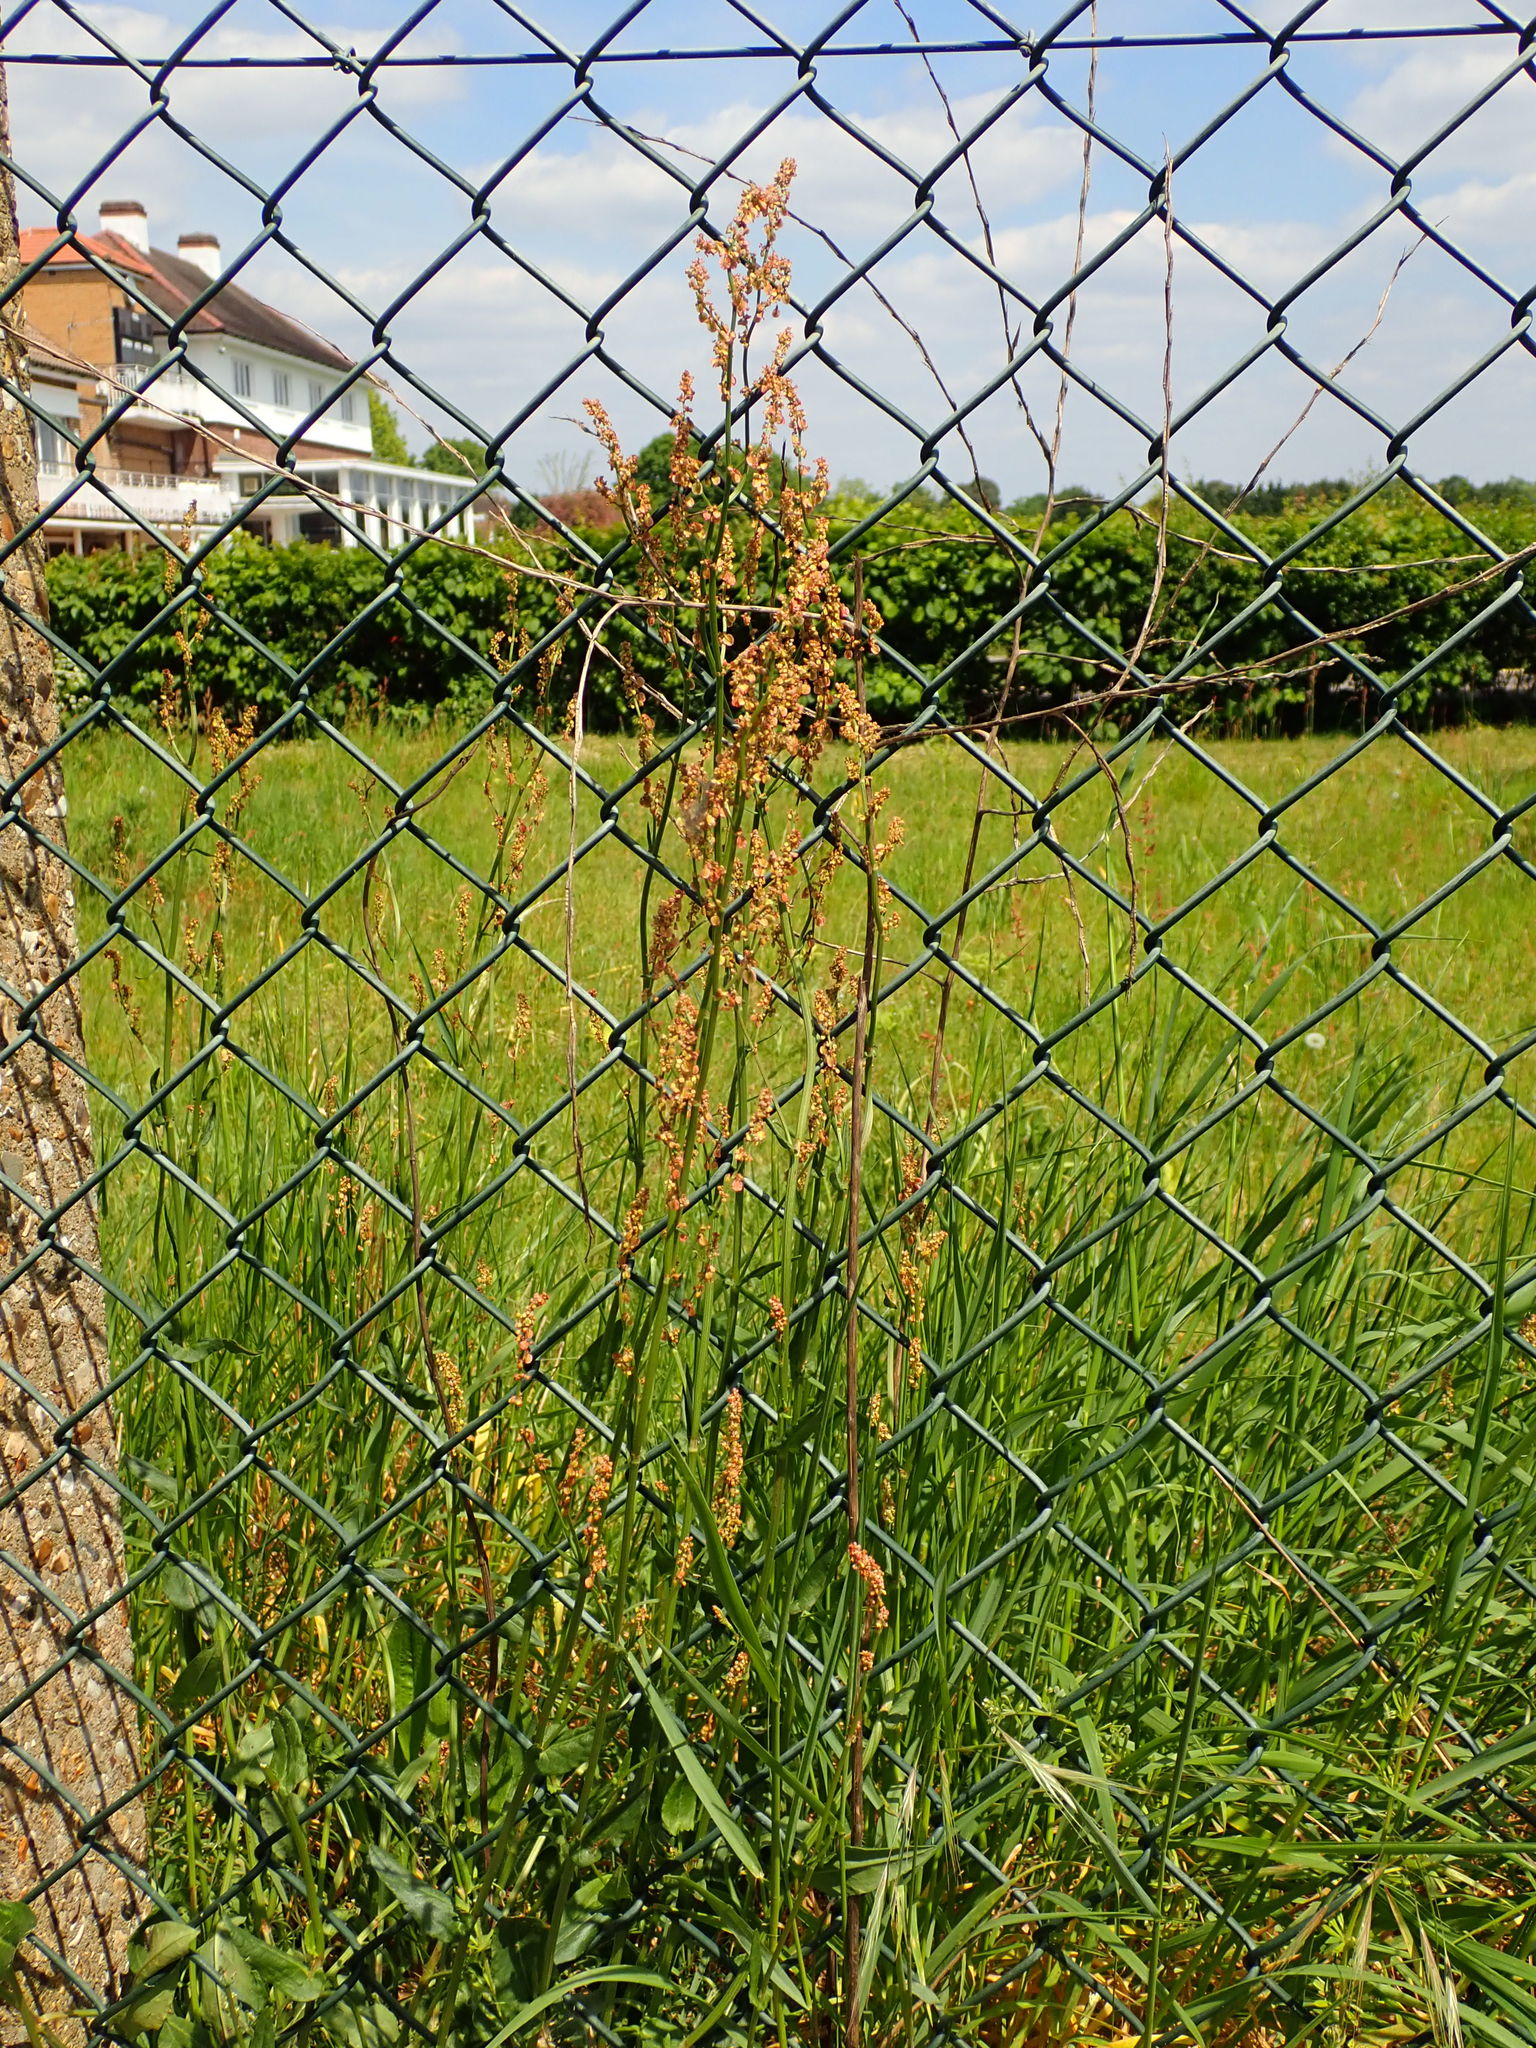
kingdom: Plantae
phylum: Tracheophyta
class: Magnoliopsida
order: Caryophyllales
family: Polygonaceae
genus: Rumex
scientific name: Rumex acetosa
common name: Garden sorrel
